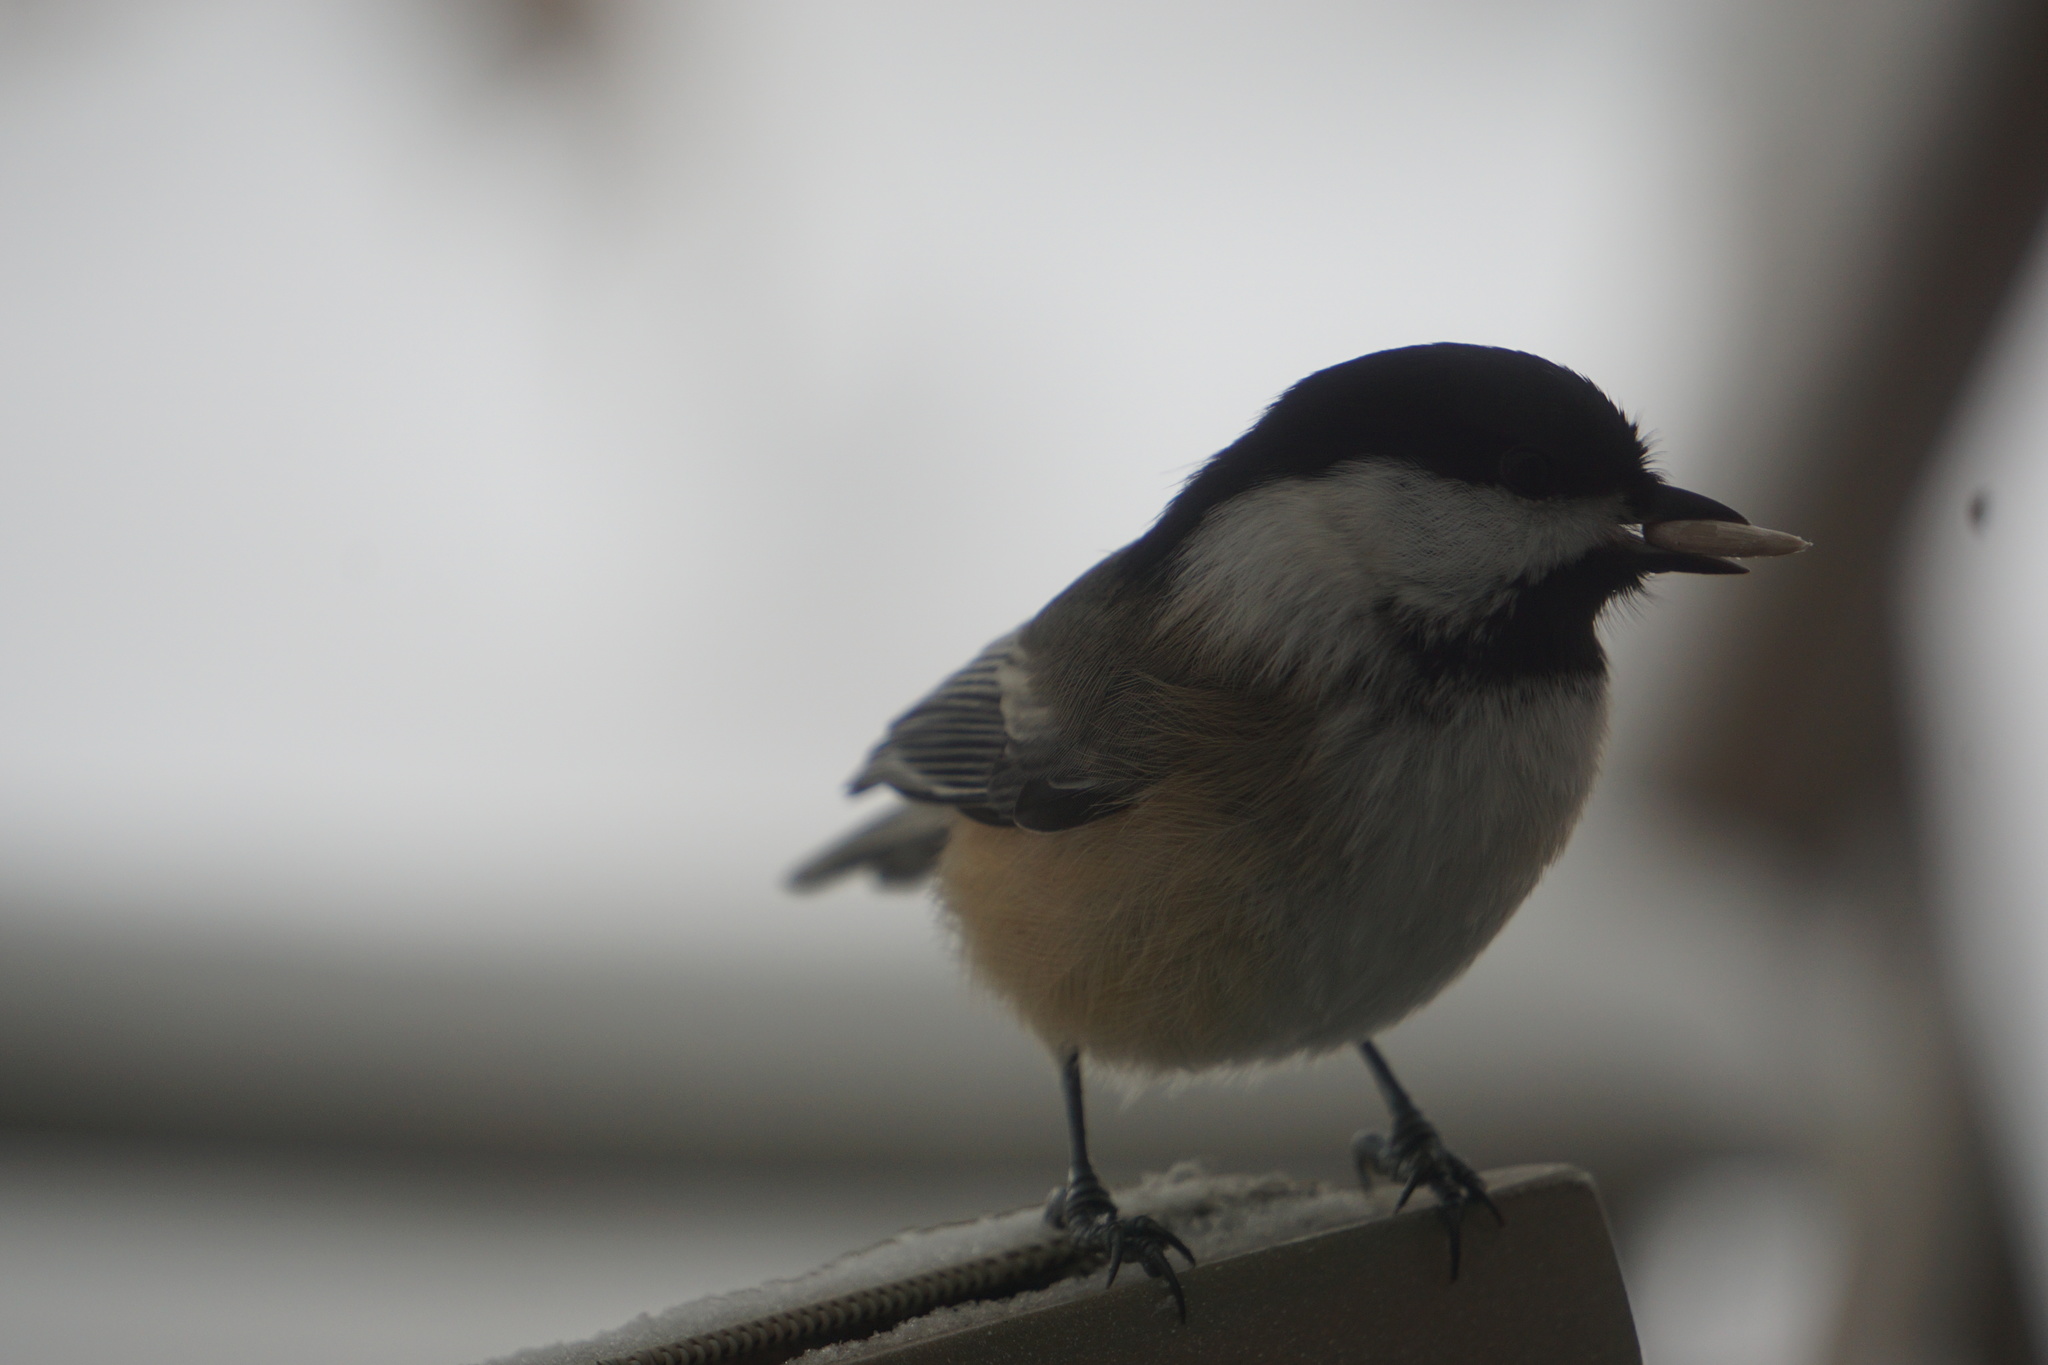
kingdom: Animalia
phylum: Chordata
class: Aves
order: Passeriformes
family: Paridae
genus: Poecile
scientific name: Poecile atricapillus
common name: Black-capped chickadee
